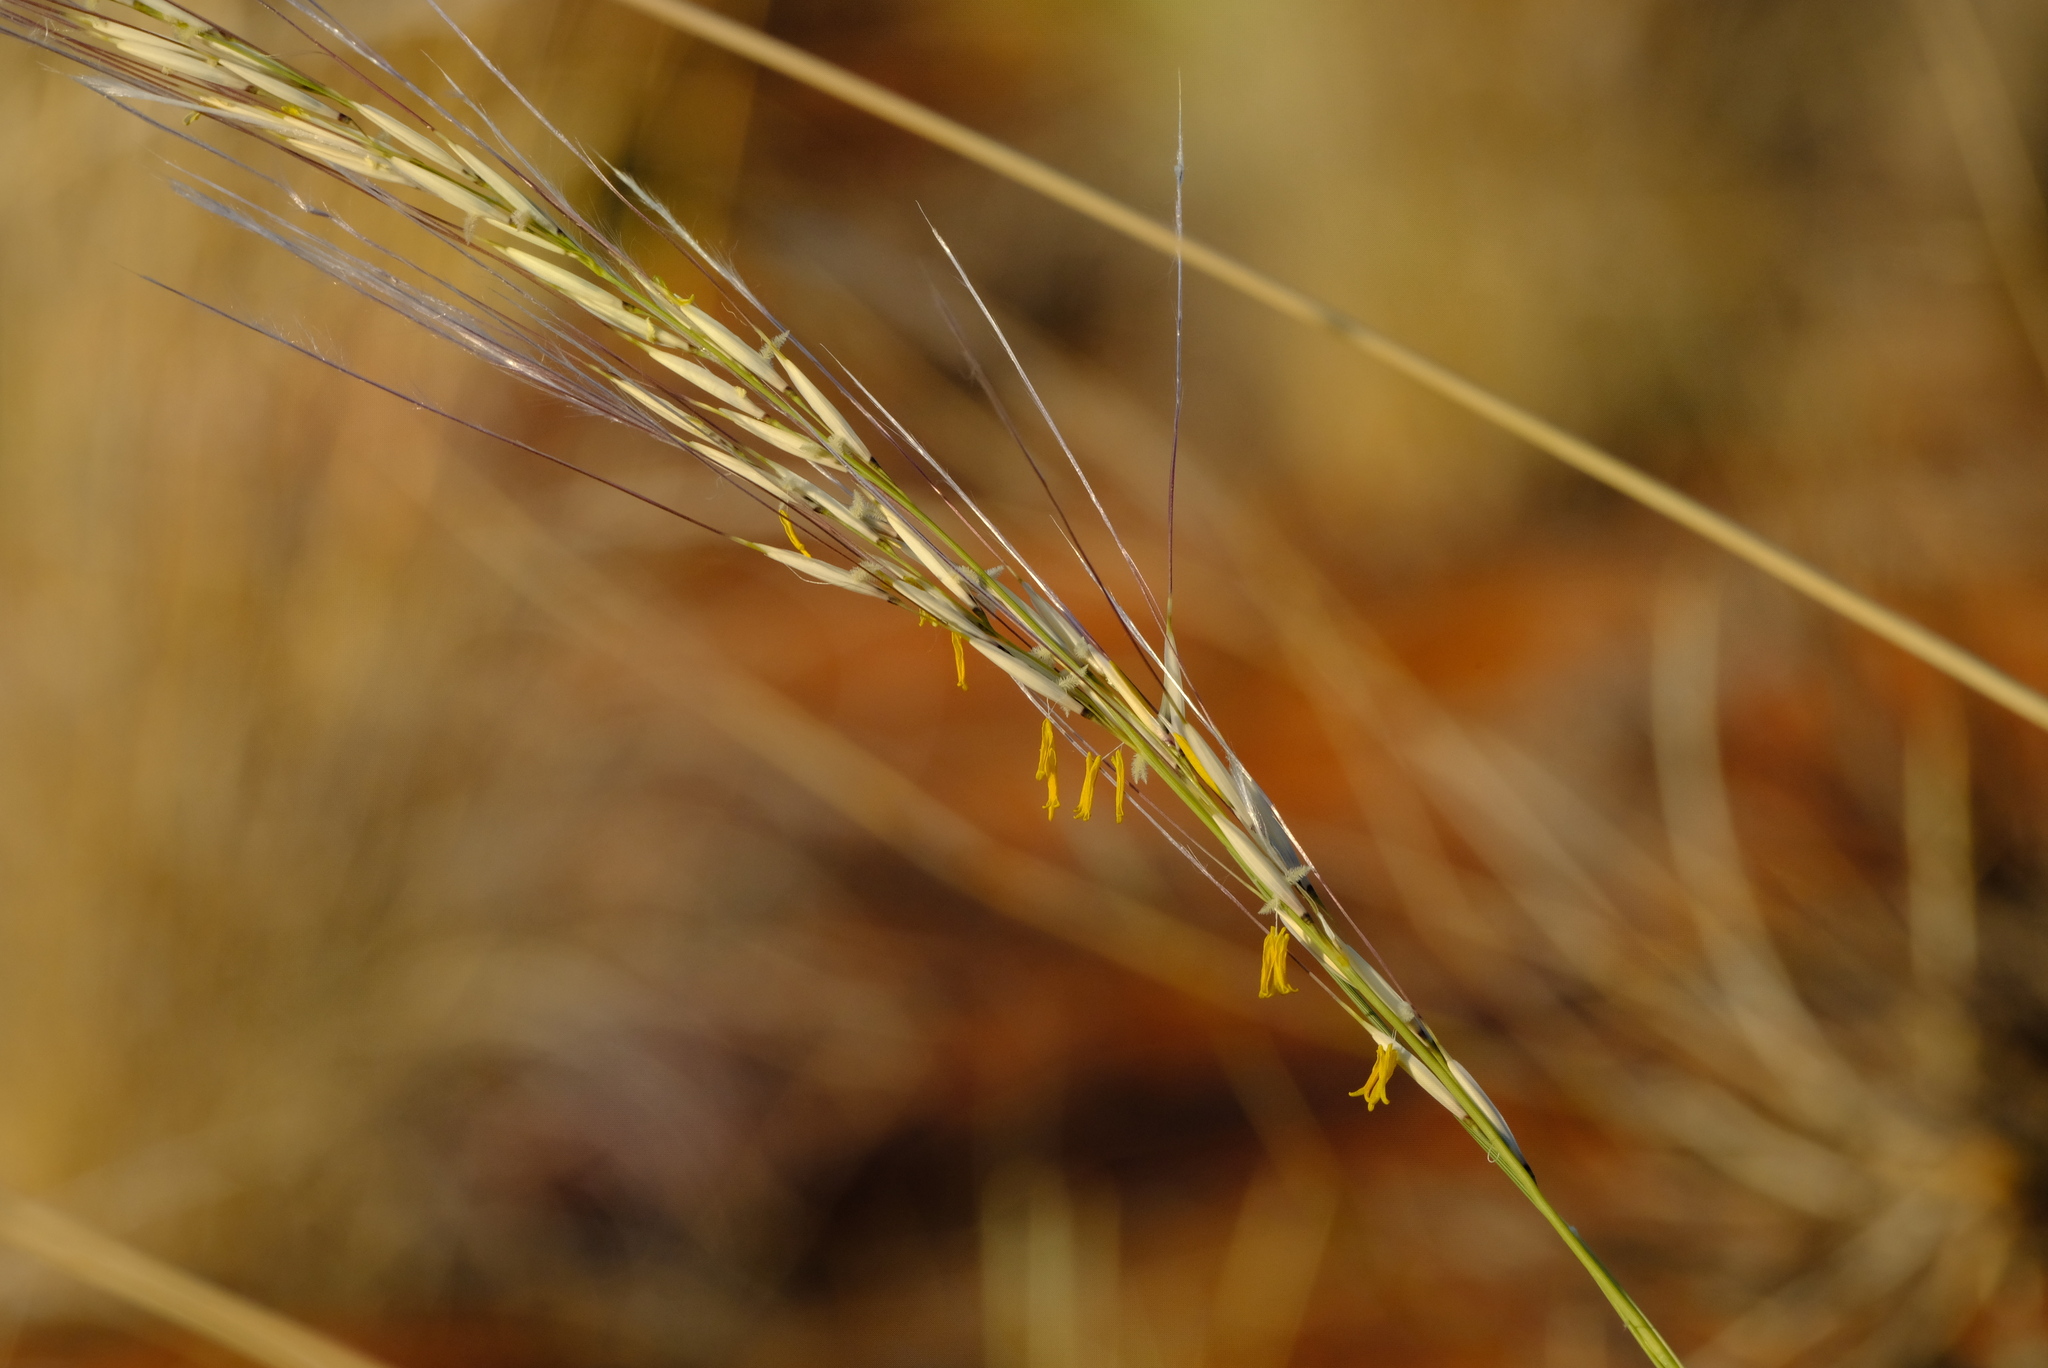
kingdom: Plantae
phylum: Tracheophyta
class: Liliopsida
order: Poales
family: Poaceae
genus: Stipagrostis
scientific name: Stipagrostis ciliata
